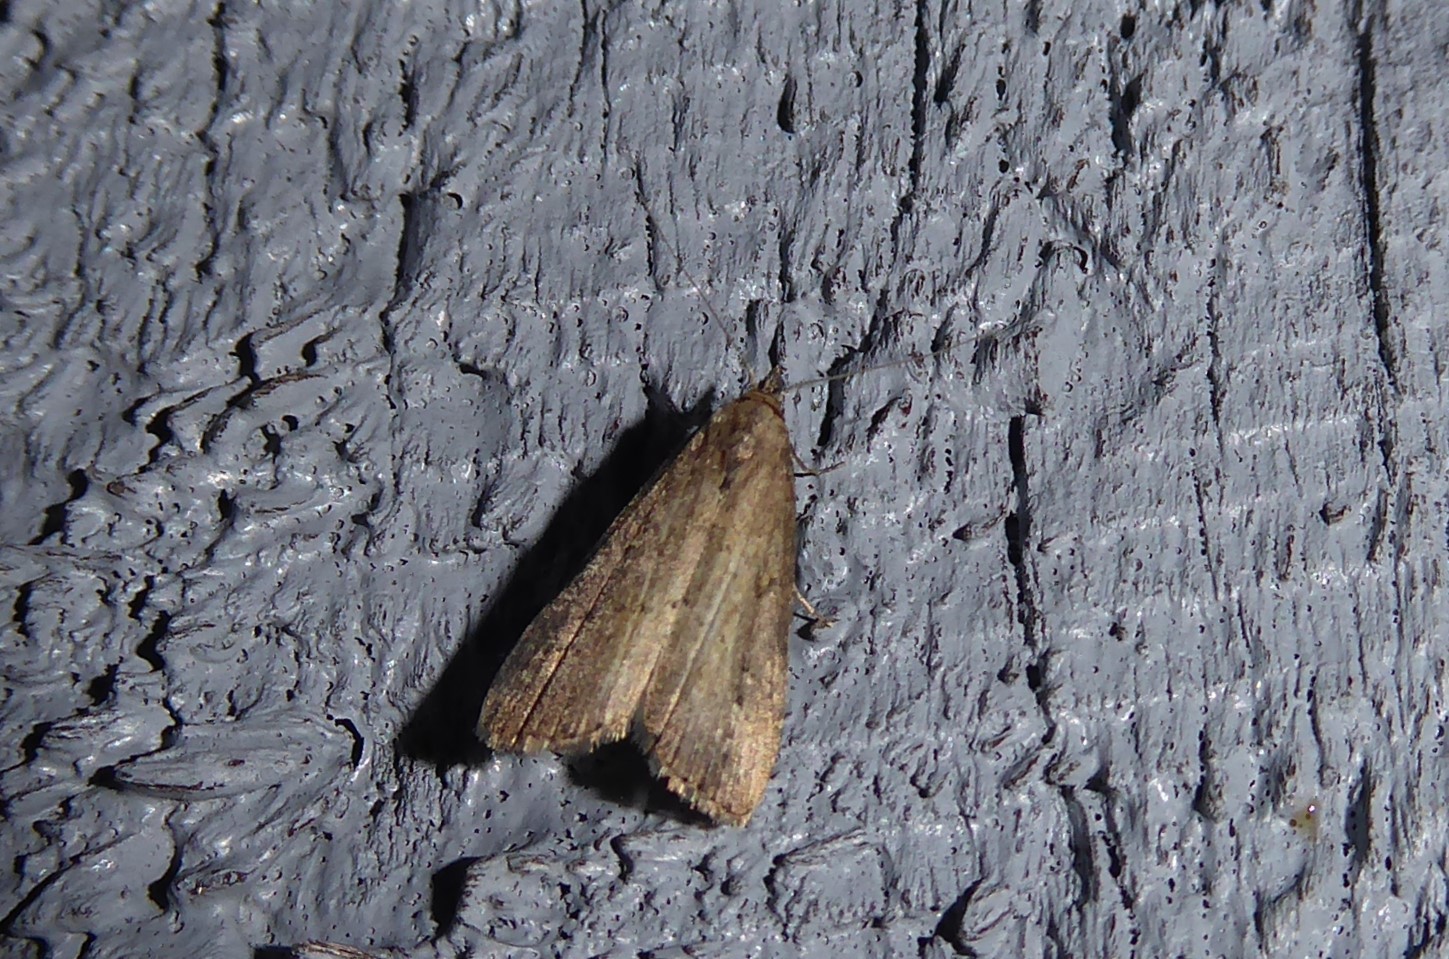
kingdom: Animalia
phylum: Arthropoda
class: Insecta
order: Lepidoptera
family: Erebidae
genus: Schrankia
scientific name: Schrankia costaestrigalis
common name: Pinion-streaked snout
